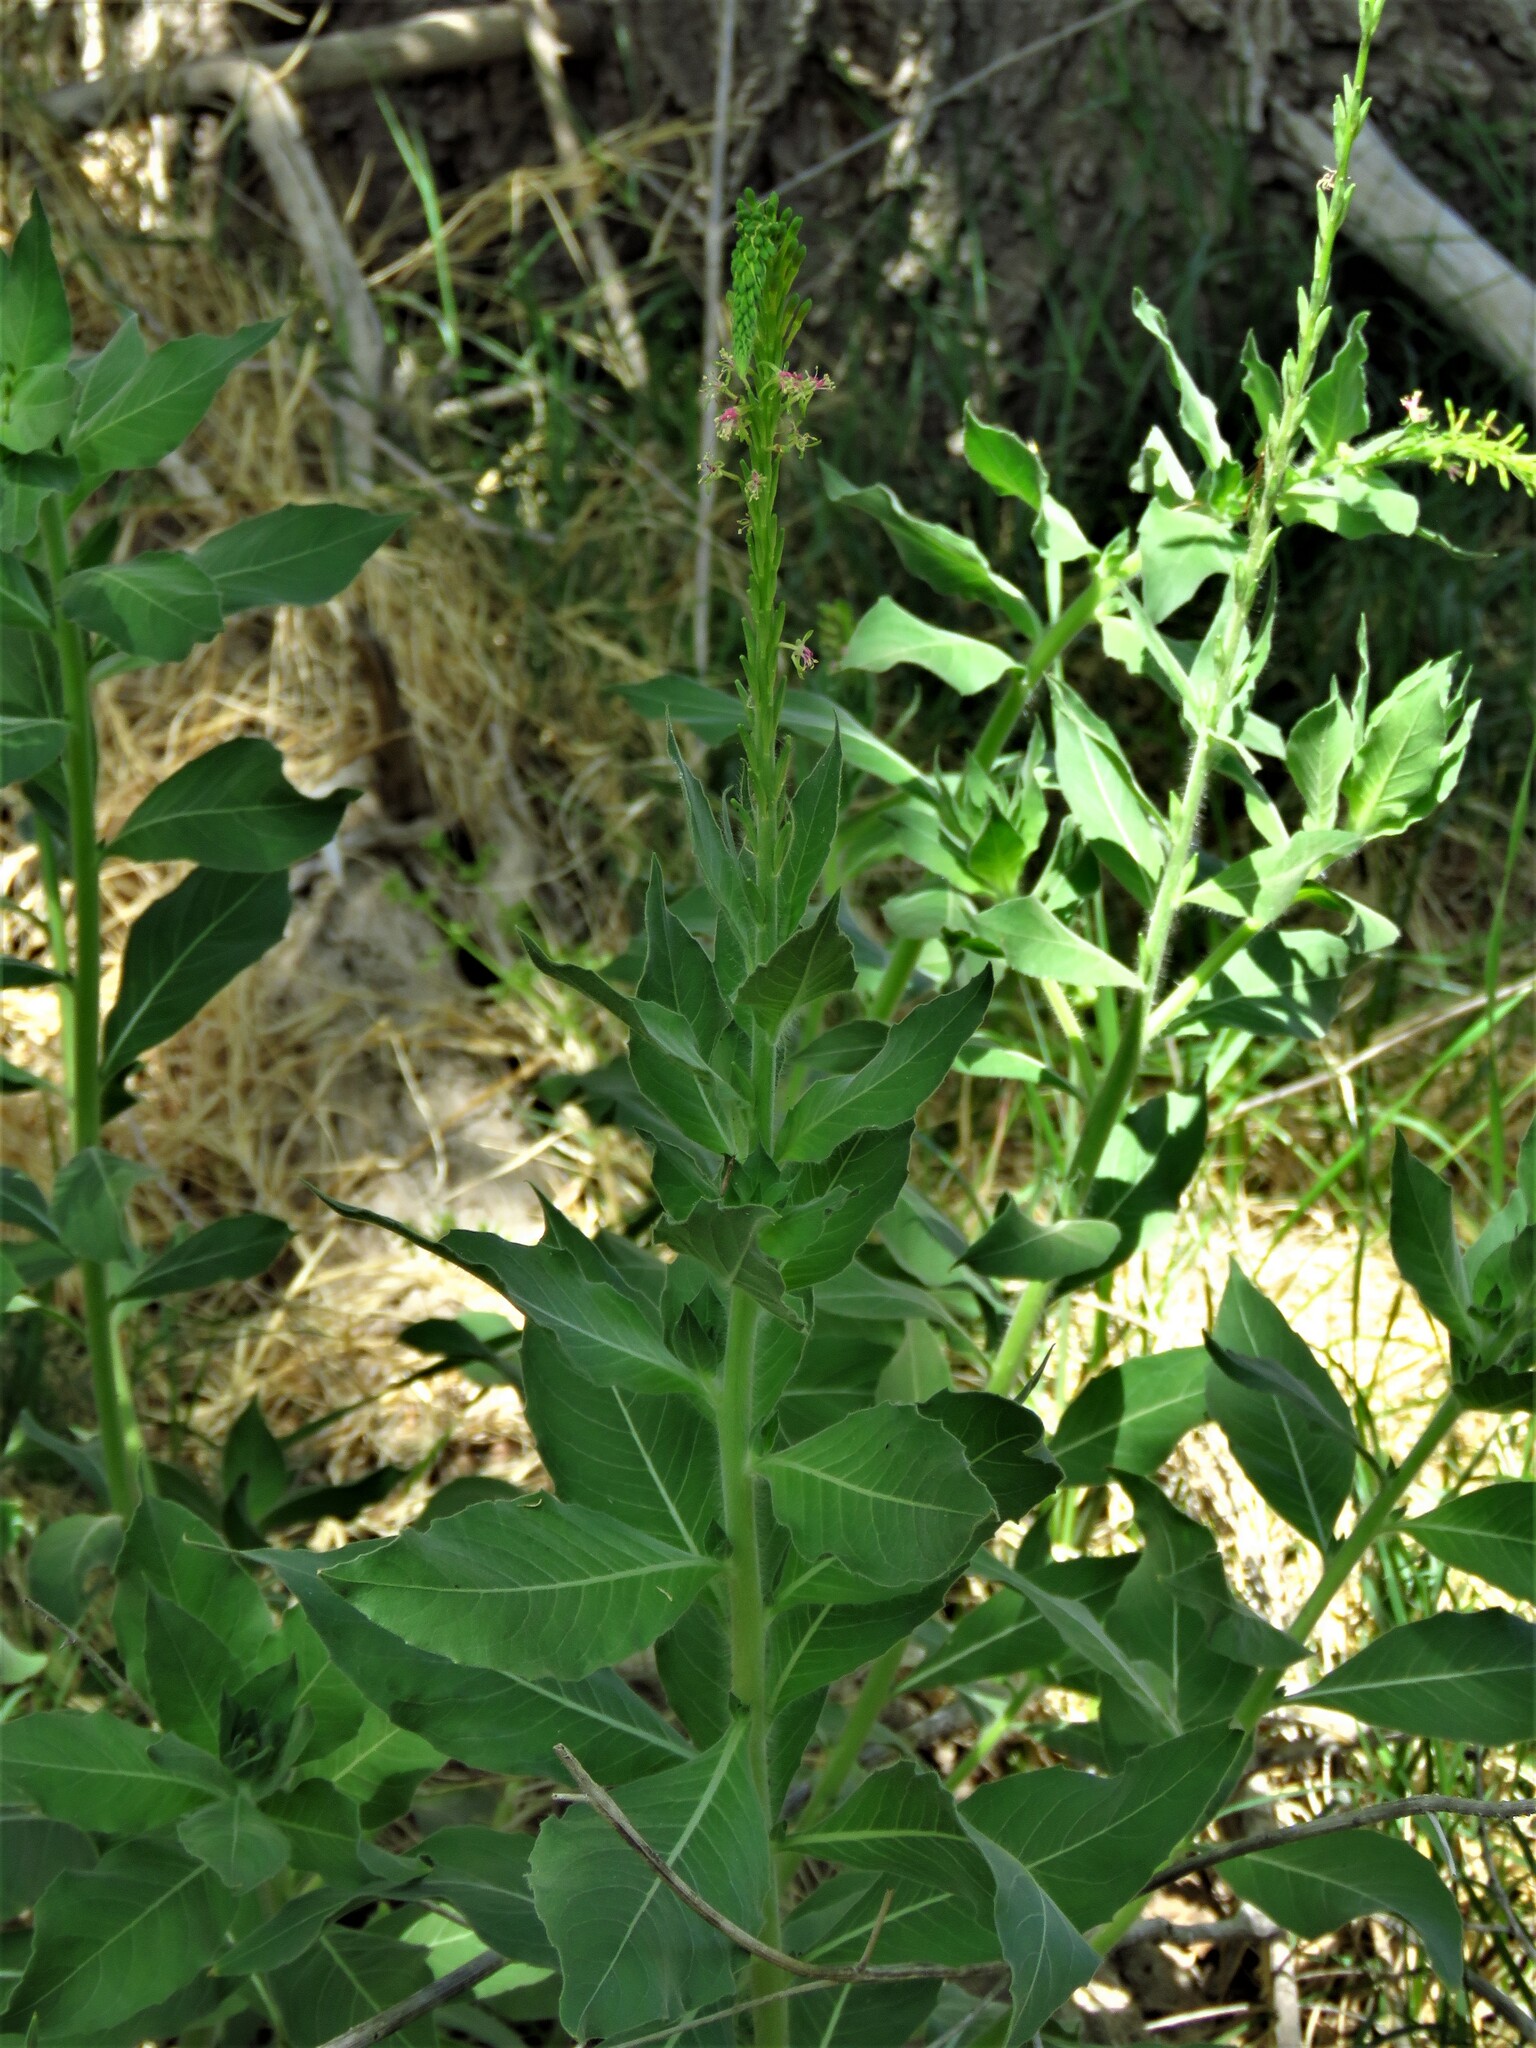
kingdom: Plantae
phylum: Tracheophyta
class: Magnoliopsida
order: Myrtales
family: Onagraceae
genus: Oenothera
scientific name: Oenothera curtiflora
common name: Velvetweed
